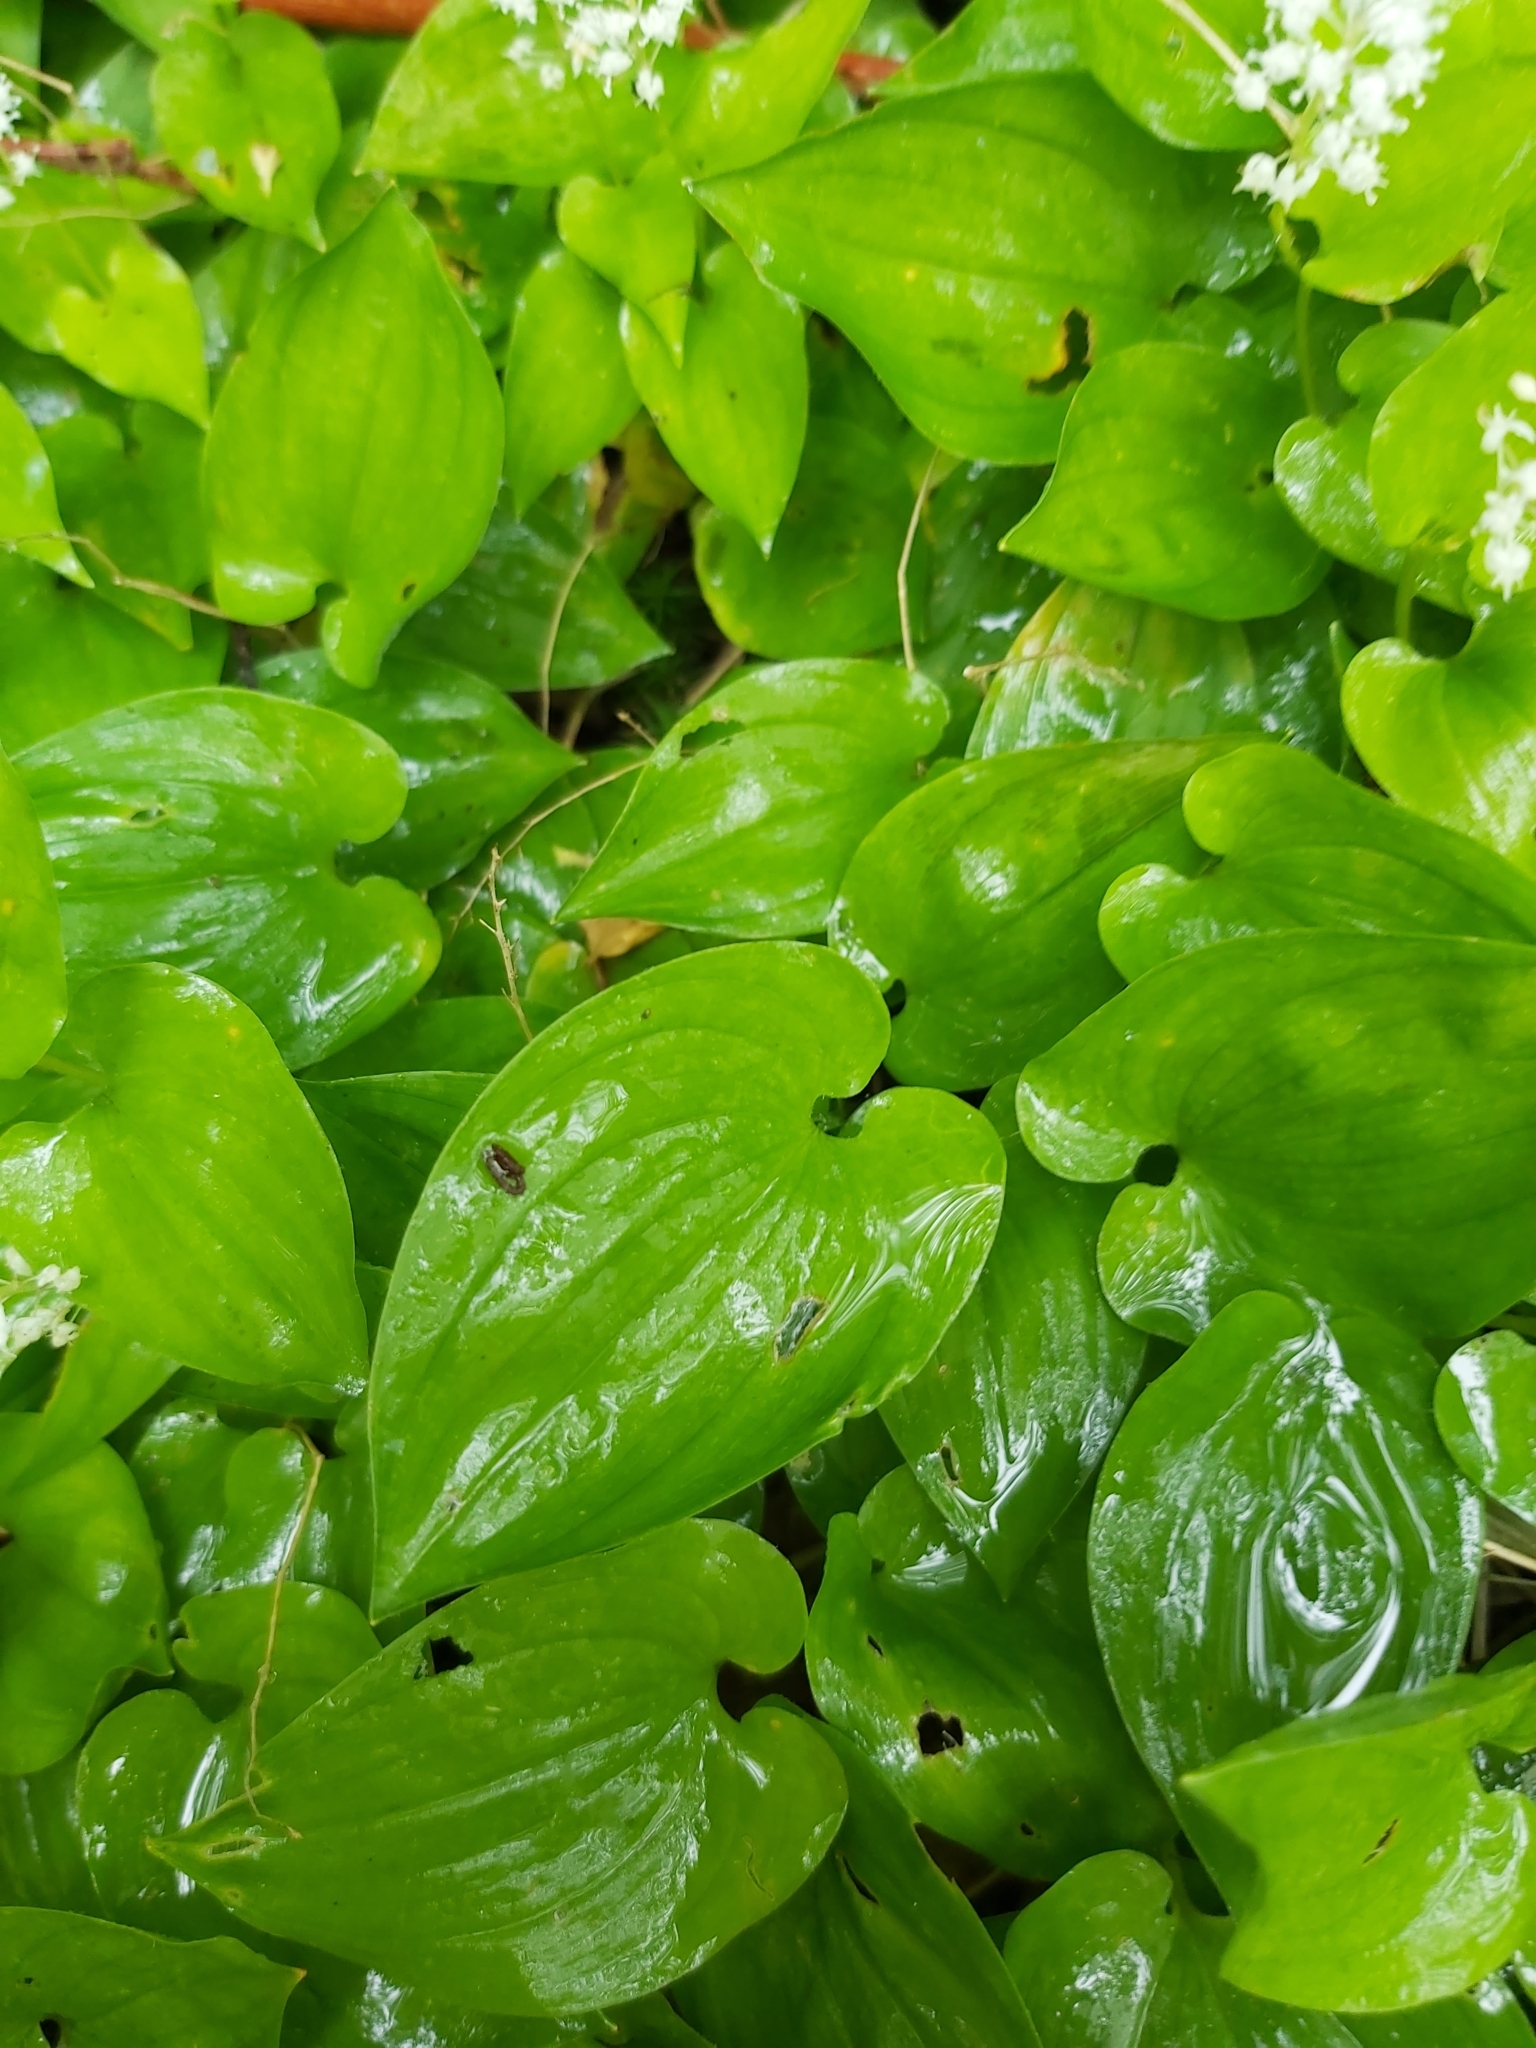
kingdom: Plantae
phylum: Tracheophyta
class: Liliopsida
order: Asparagales
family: Asparagaceae
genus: Maianthemum
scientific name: Maianthemum bifolium
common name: May lily
